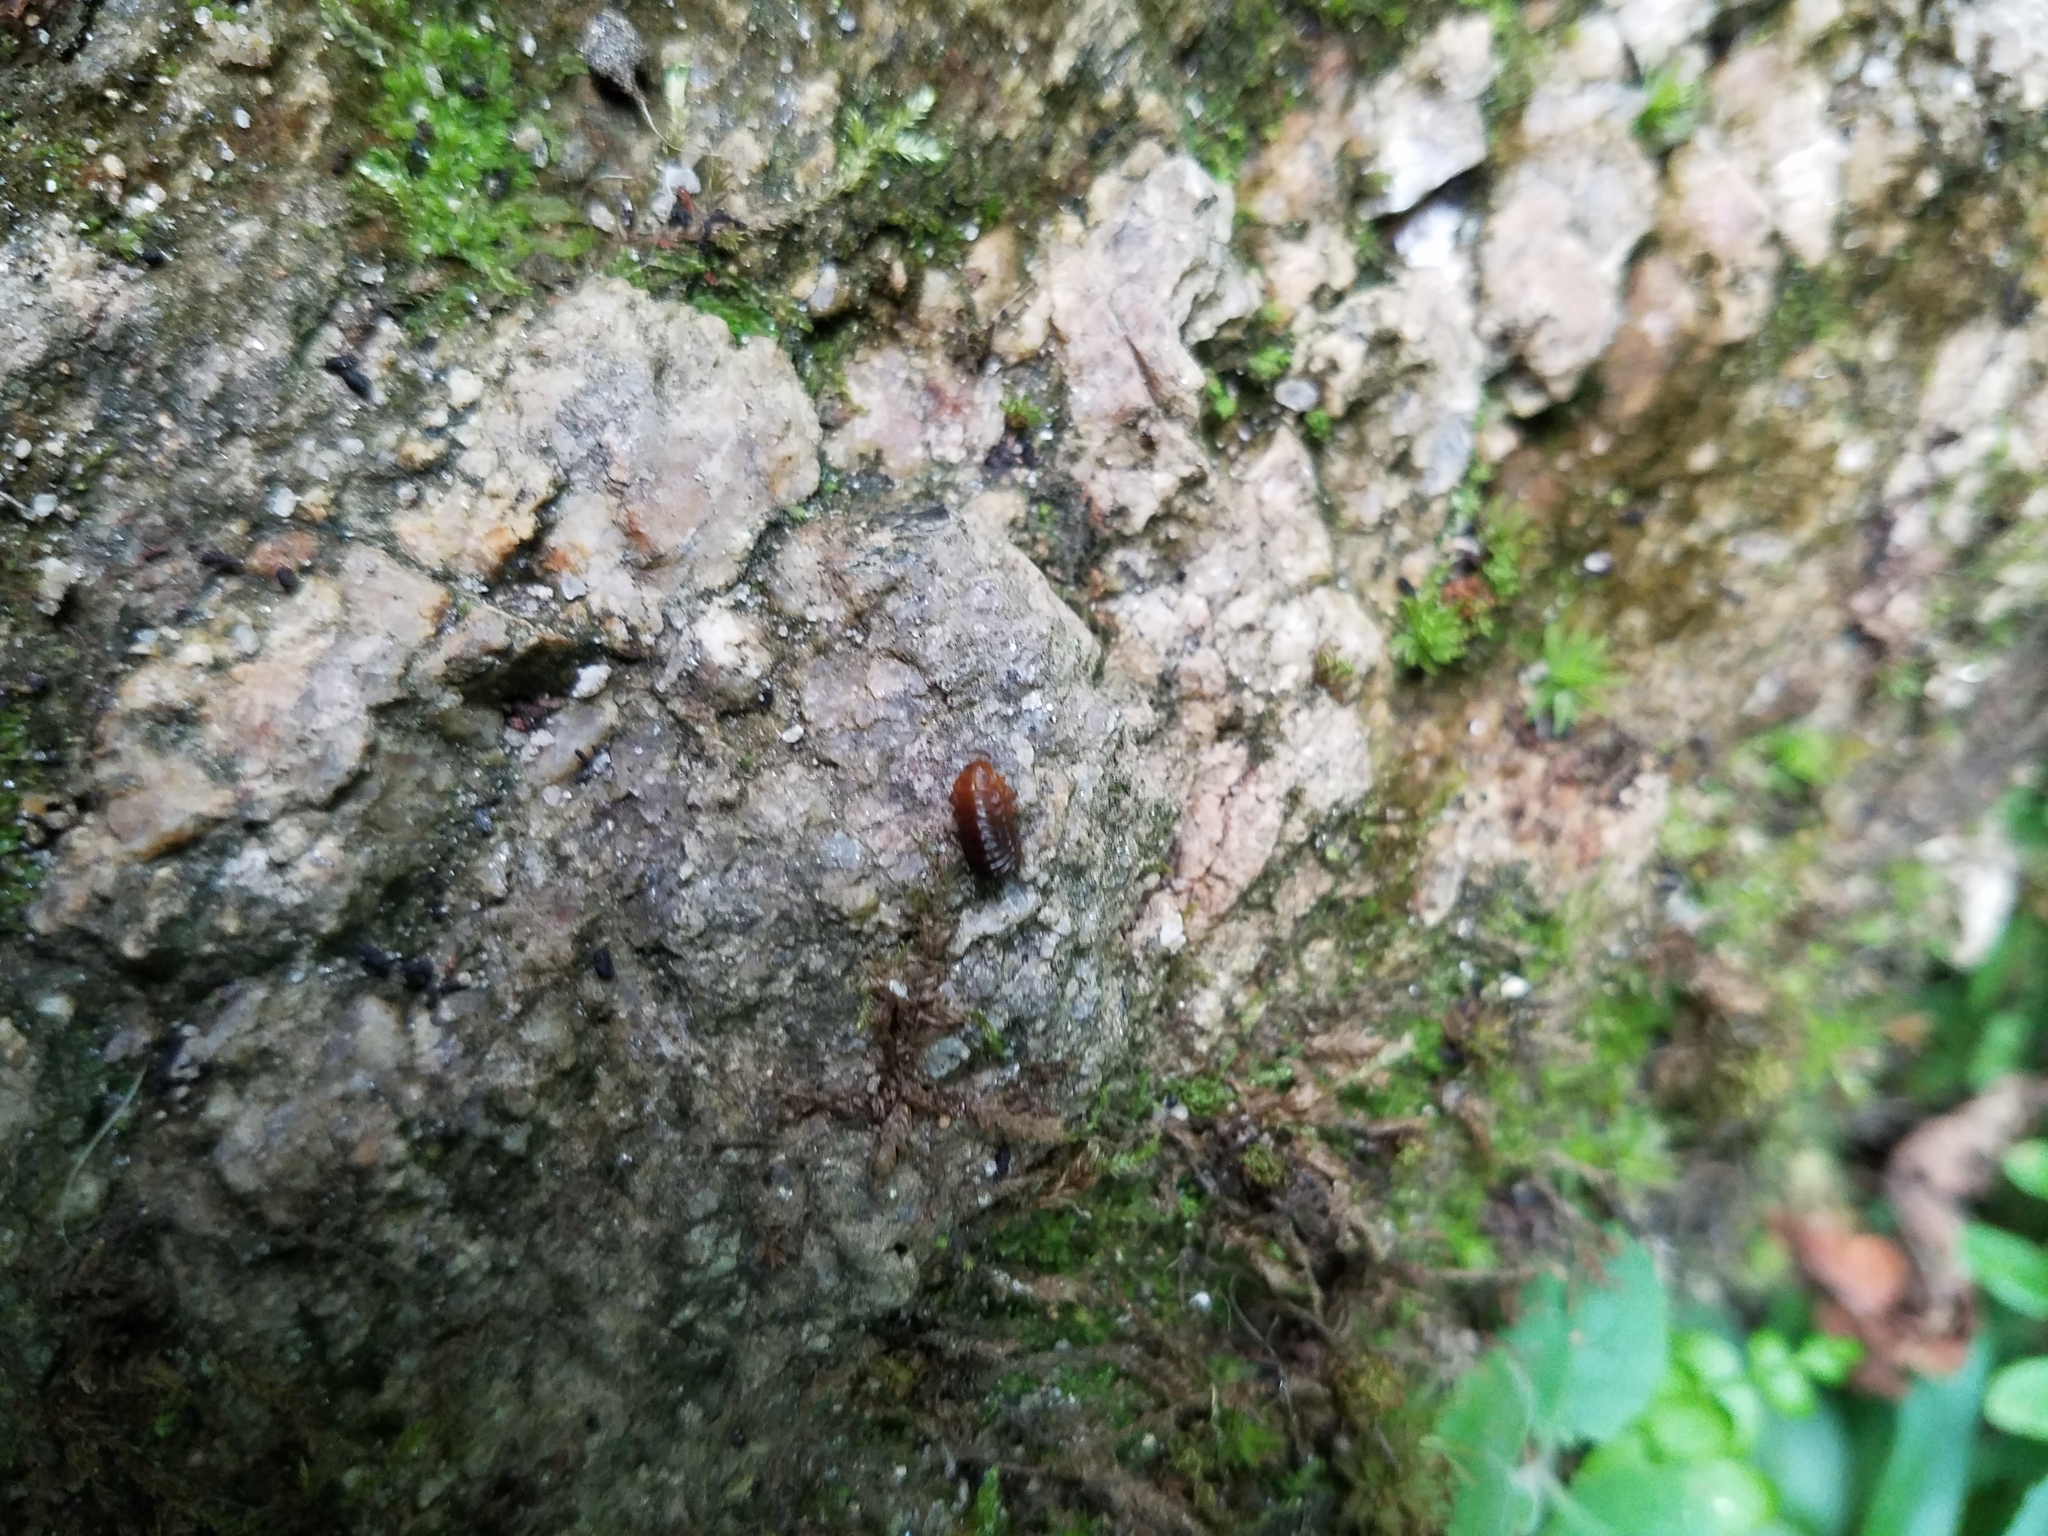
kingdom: Animalia
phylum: Arthropoda
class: Insecta
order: Coleoptera
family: Chrysomelidae
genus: Monocesta
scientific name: Monocesta coryli
